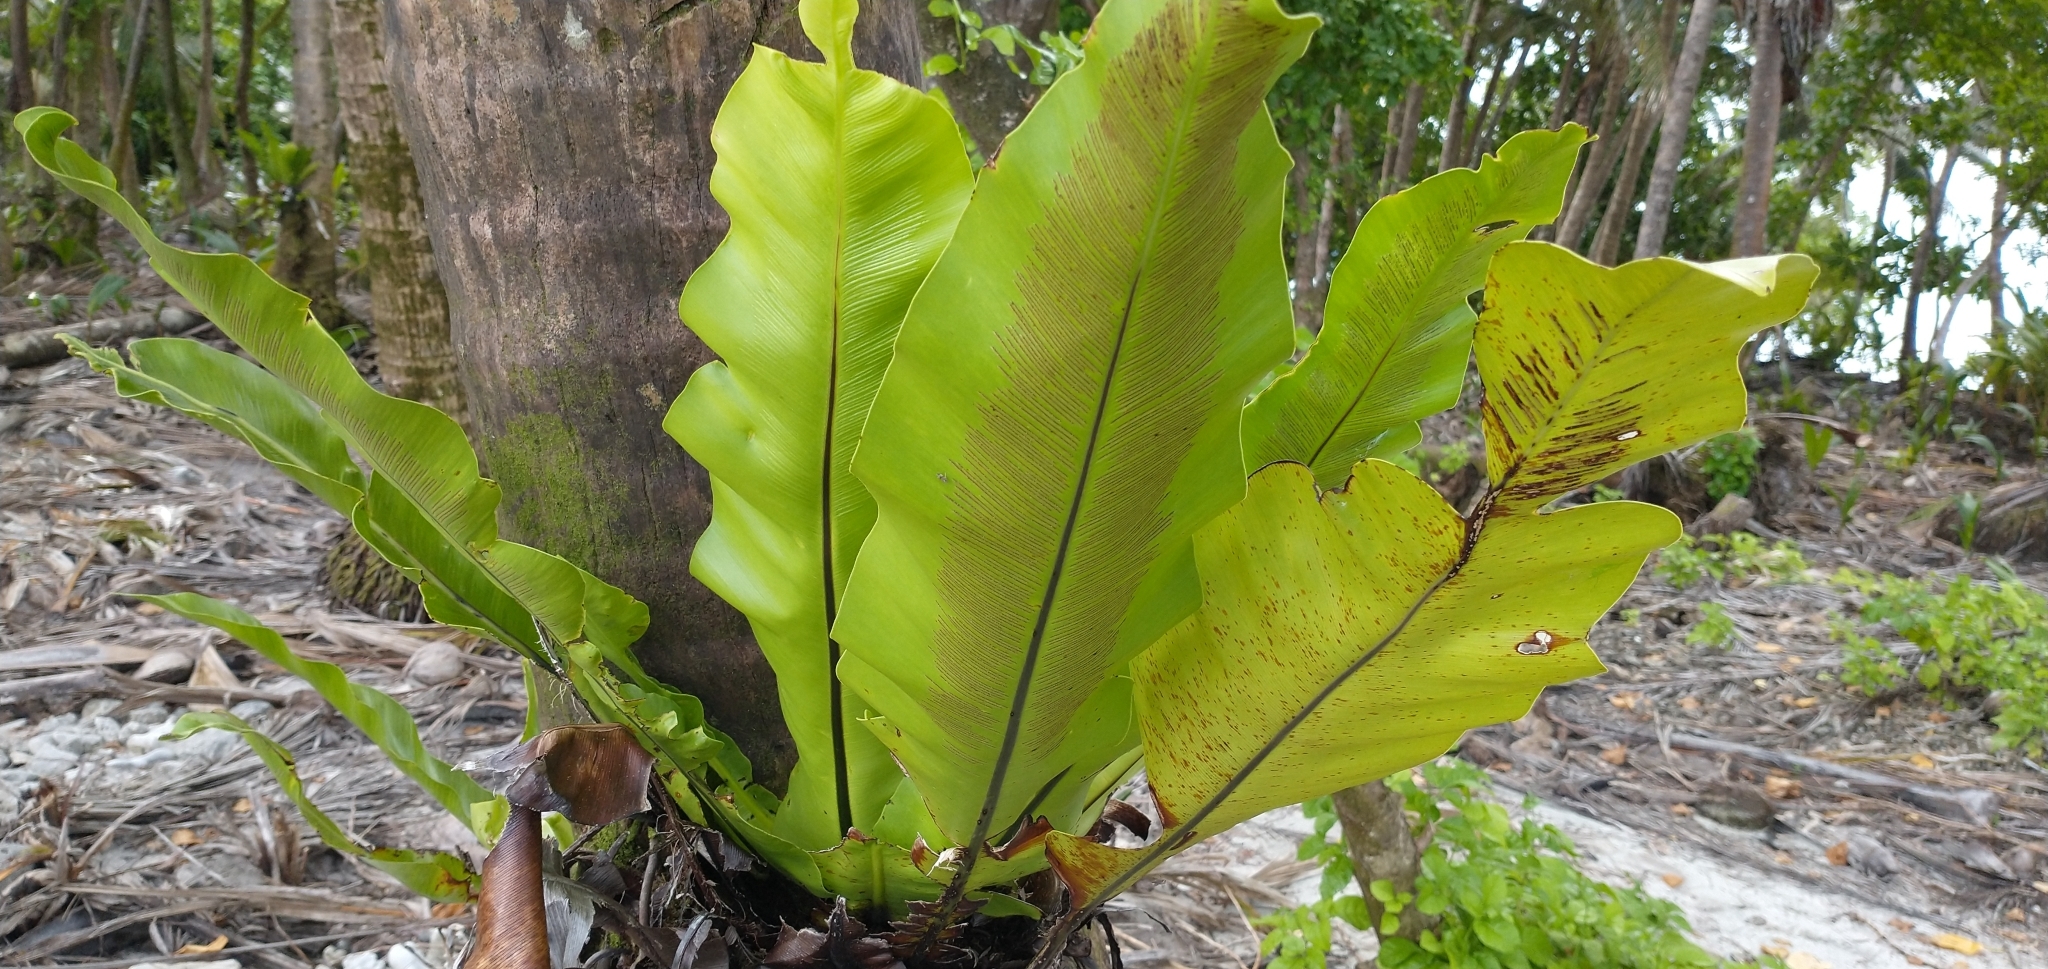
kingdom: Plantae
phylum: Tracheophyta
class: Polypodiopsida
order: Polypodiales
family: Aspleniaceae
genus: Asplenium
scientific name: Asplenium nidus
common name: Bird's-nest fern
